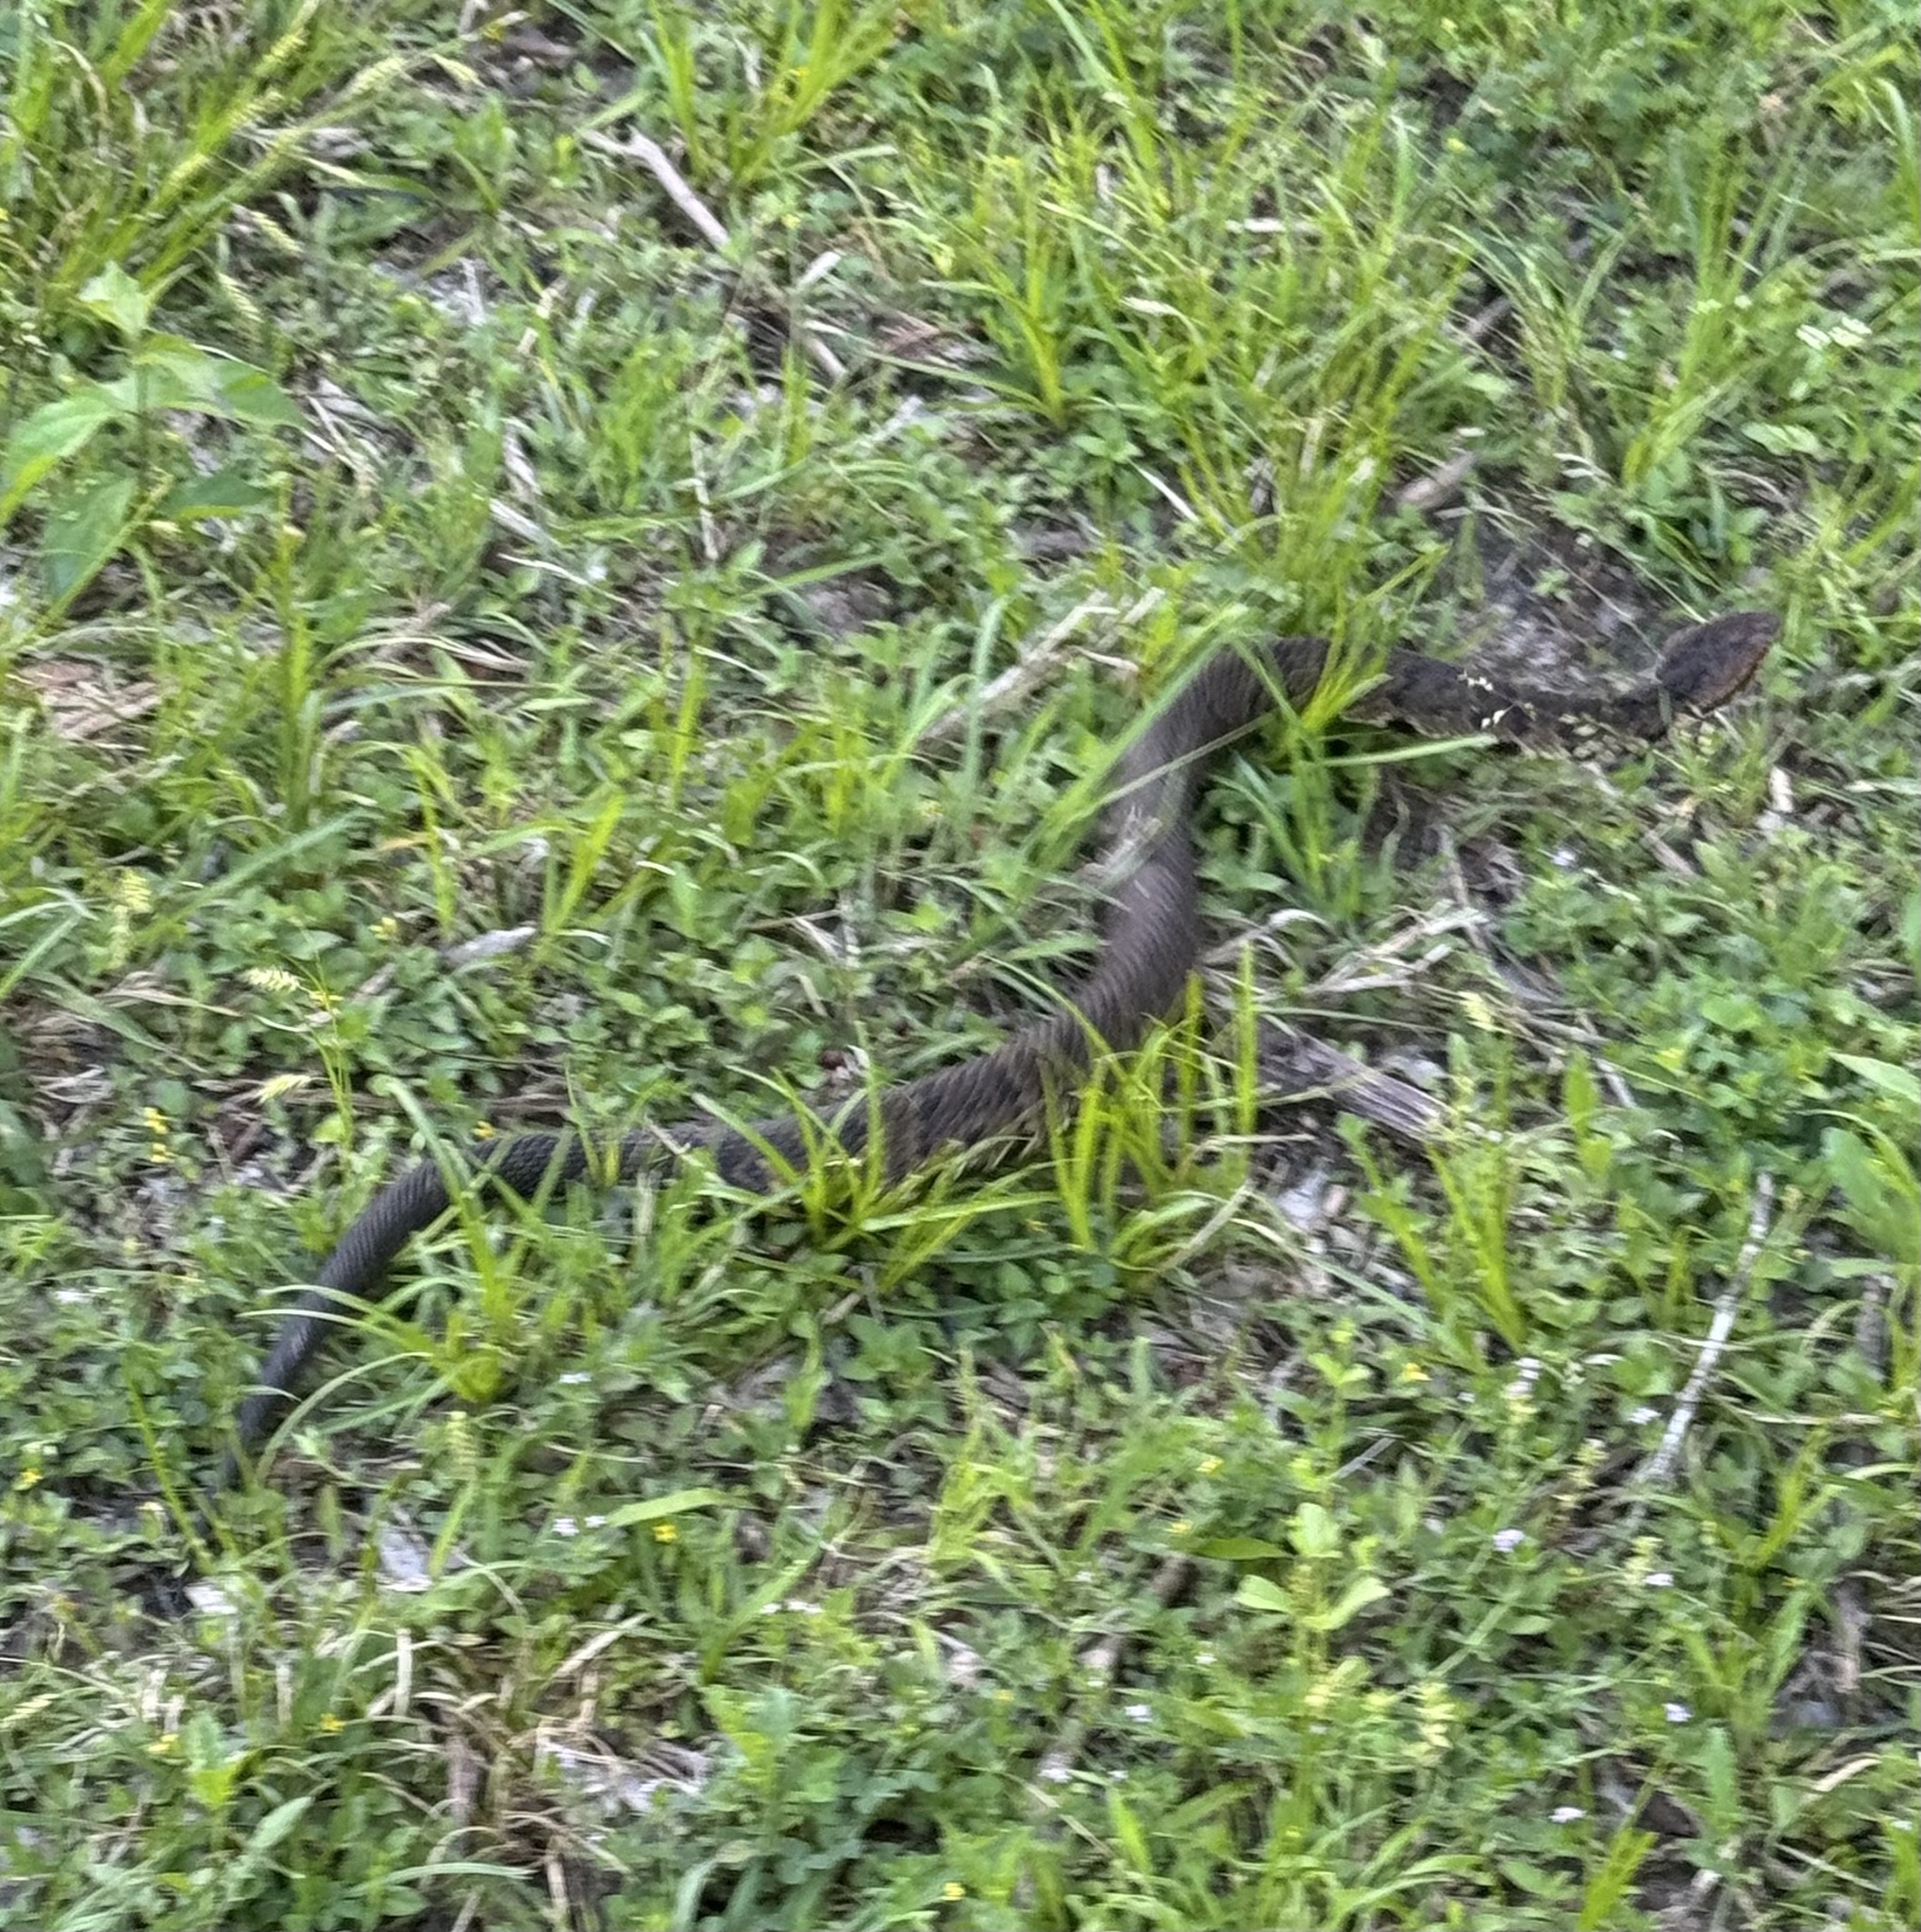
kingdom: Animalia
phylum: Chordata
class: Squamata
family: Viperidae
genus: Agkistrodon
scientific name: Agkistrodon piscivorus
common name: Cottonmouth
